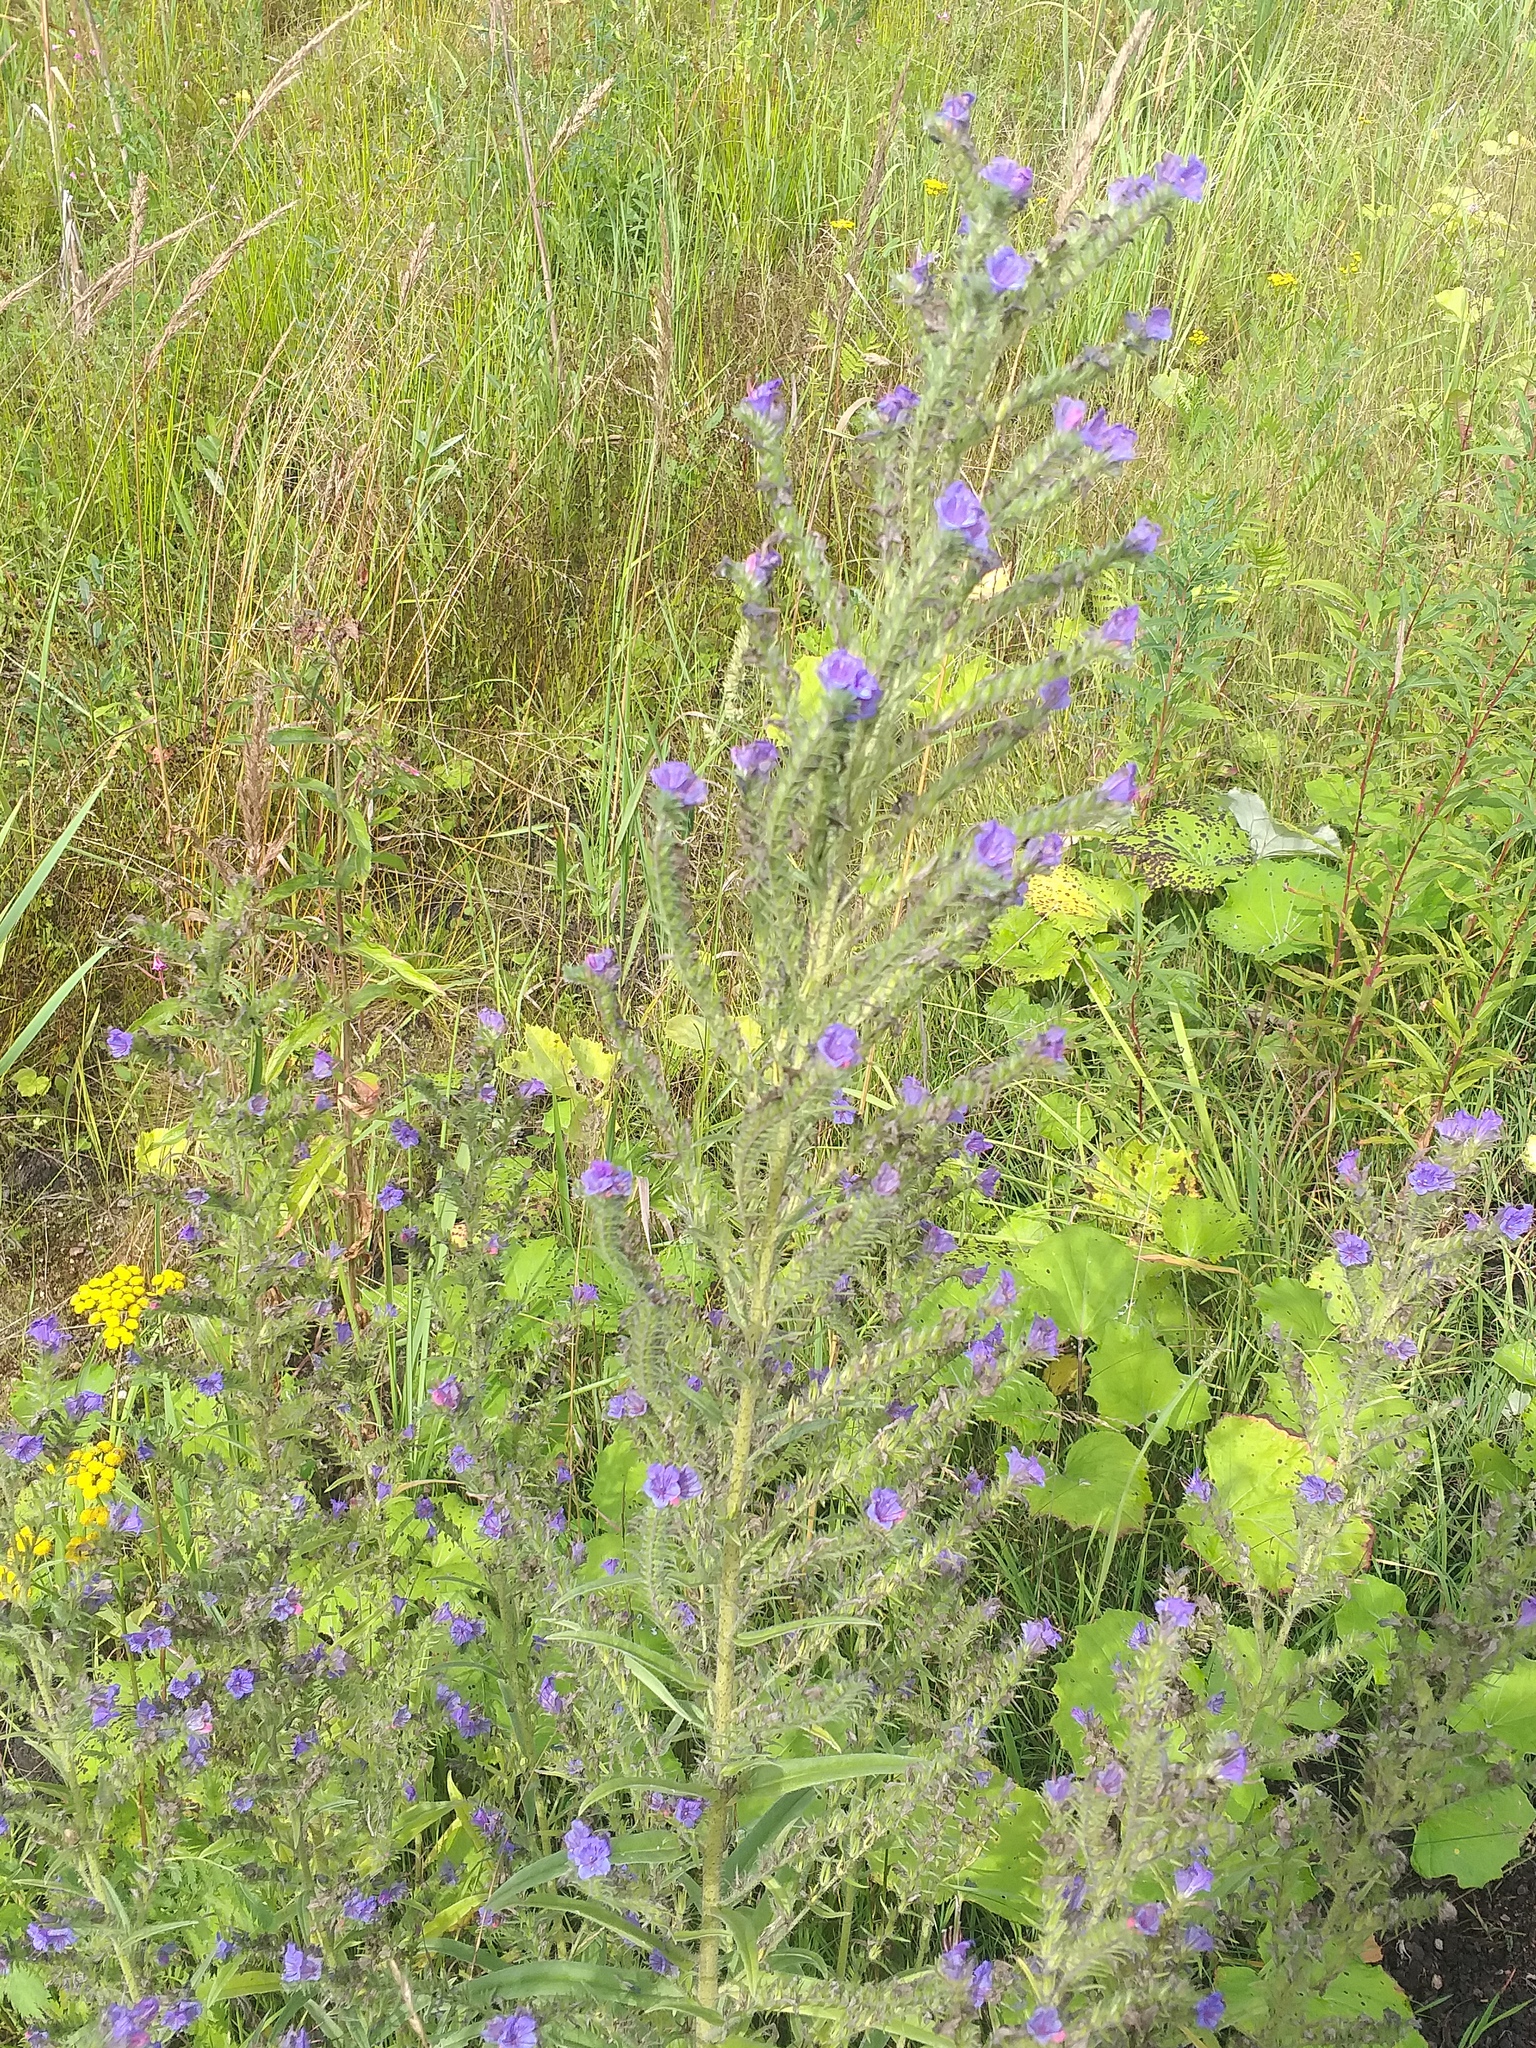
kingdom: Plantae
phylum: Tracheophyta
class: Magnoliopsida
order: Boraginales
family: Boraginaceae
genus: Echium
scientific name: Echium vulgare
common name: Common viper's bugloss
